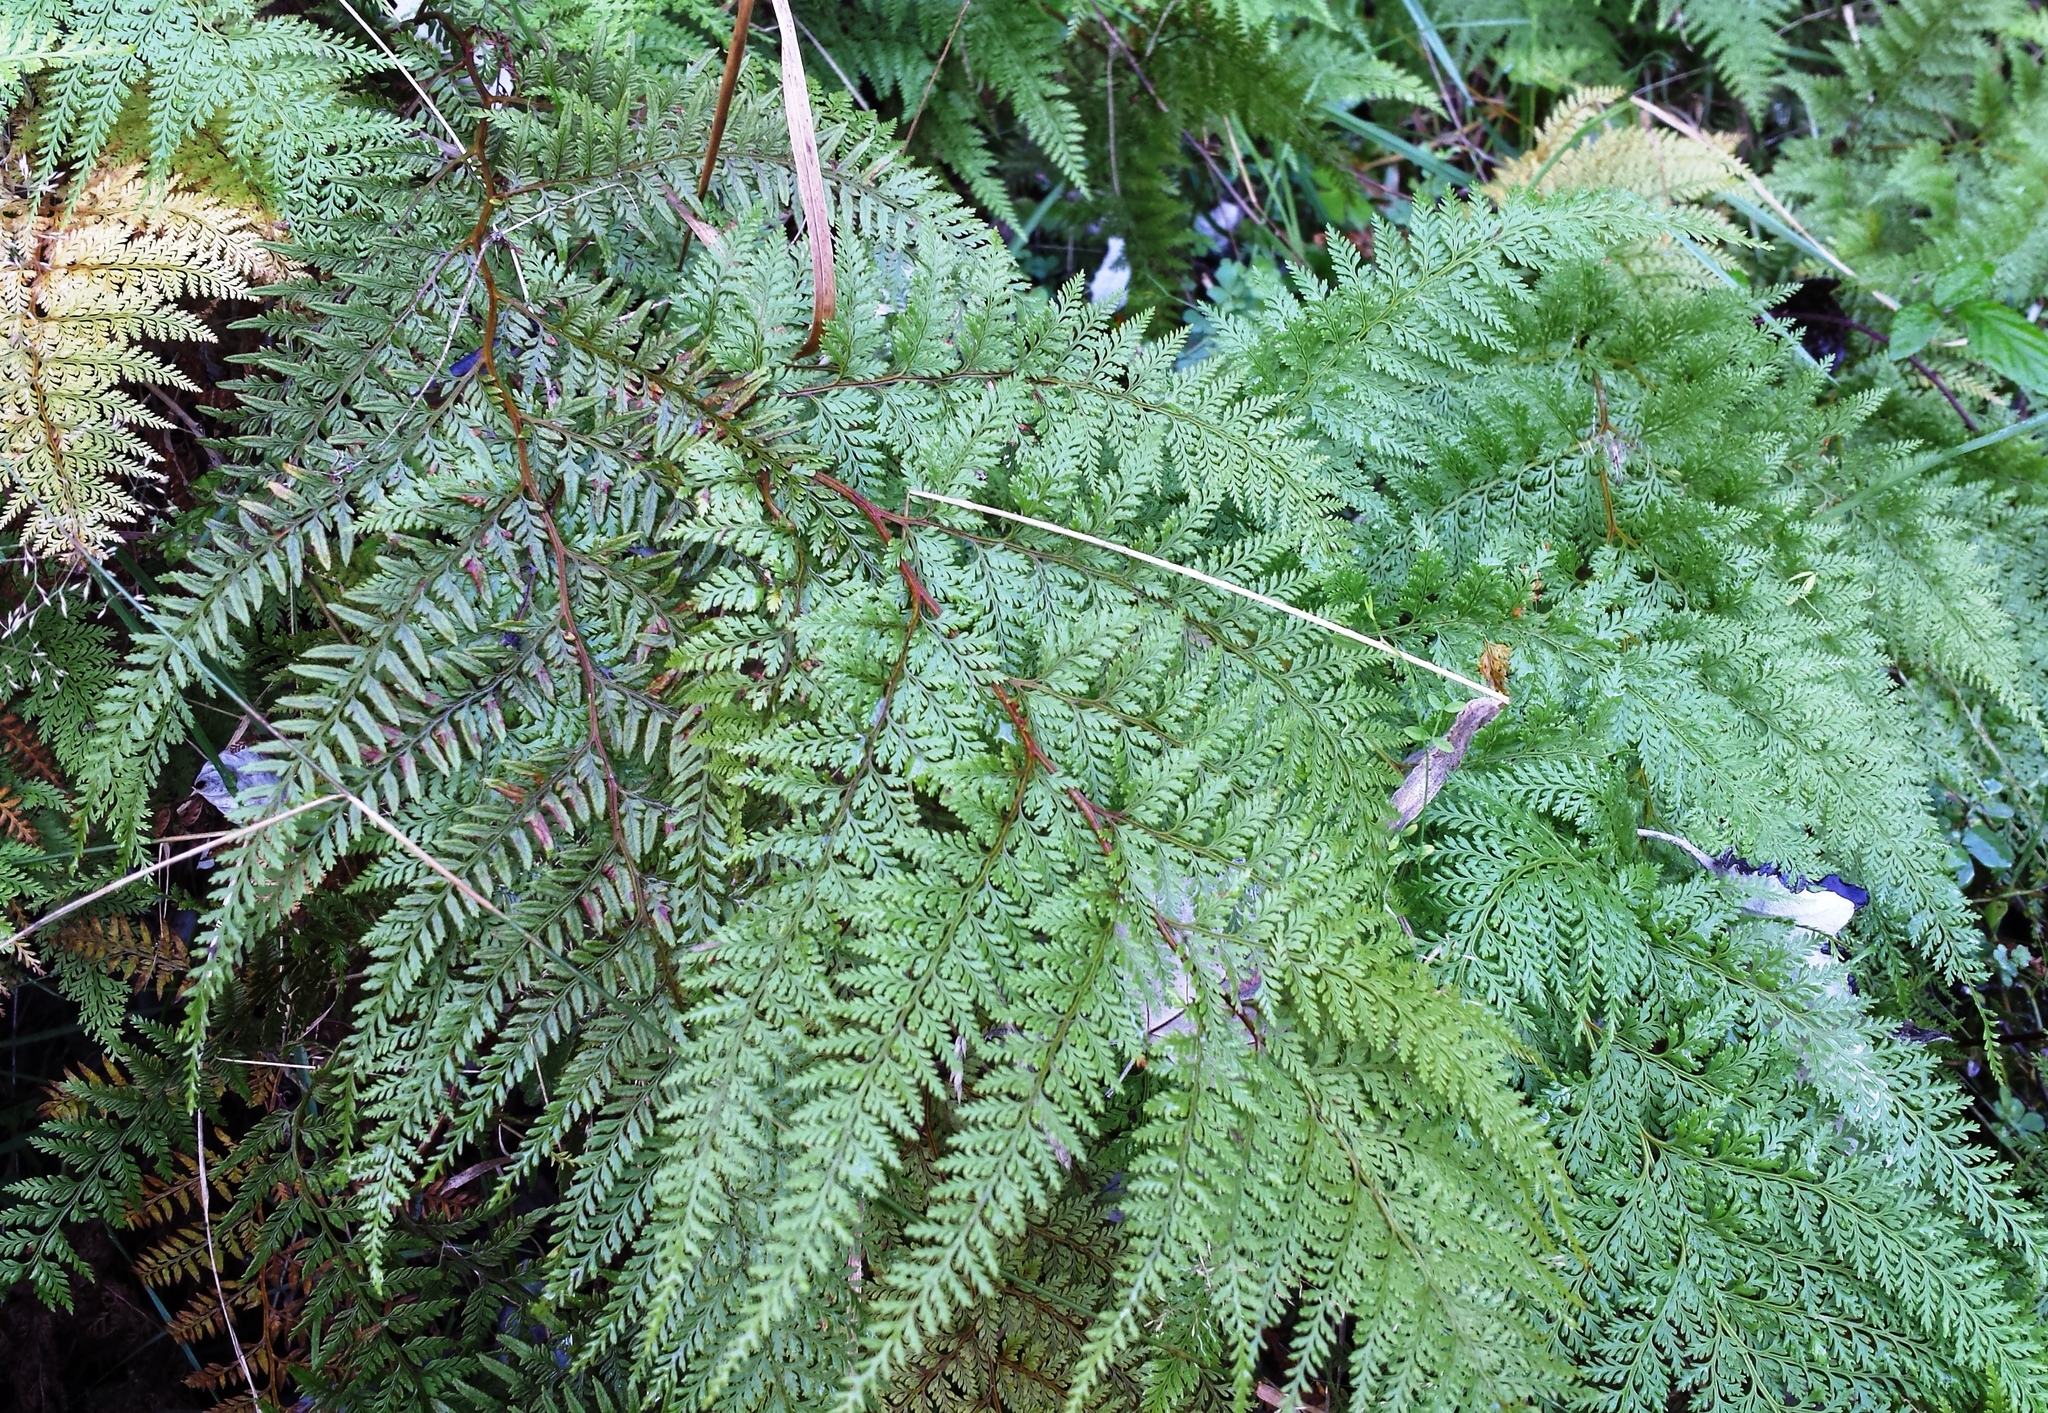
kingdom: Plantae
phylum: Tracheophyta
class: Polypodiopsida
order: Polypodiales
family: Dennstaedtiaceae
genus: Paesia
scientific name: Paesia scaberula
